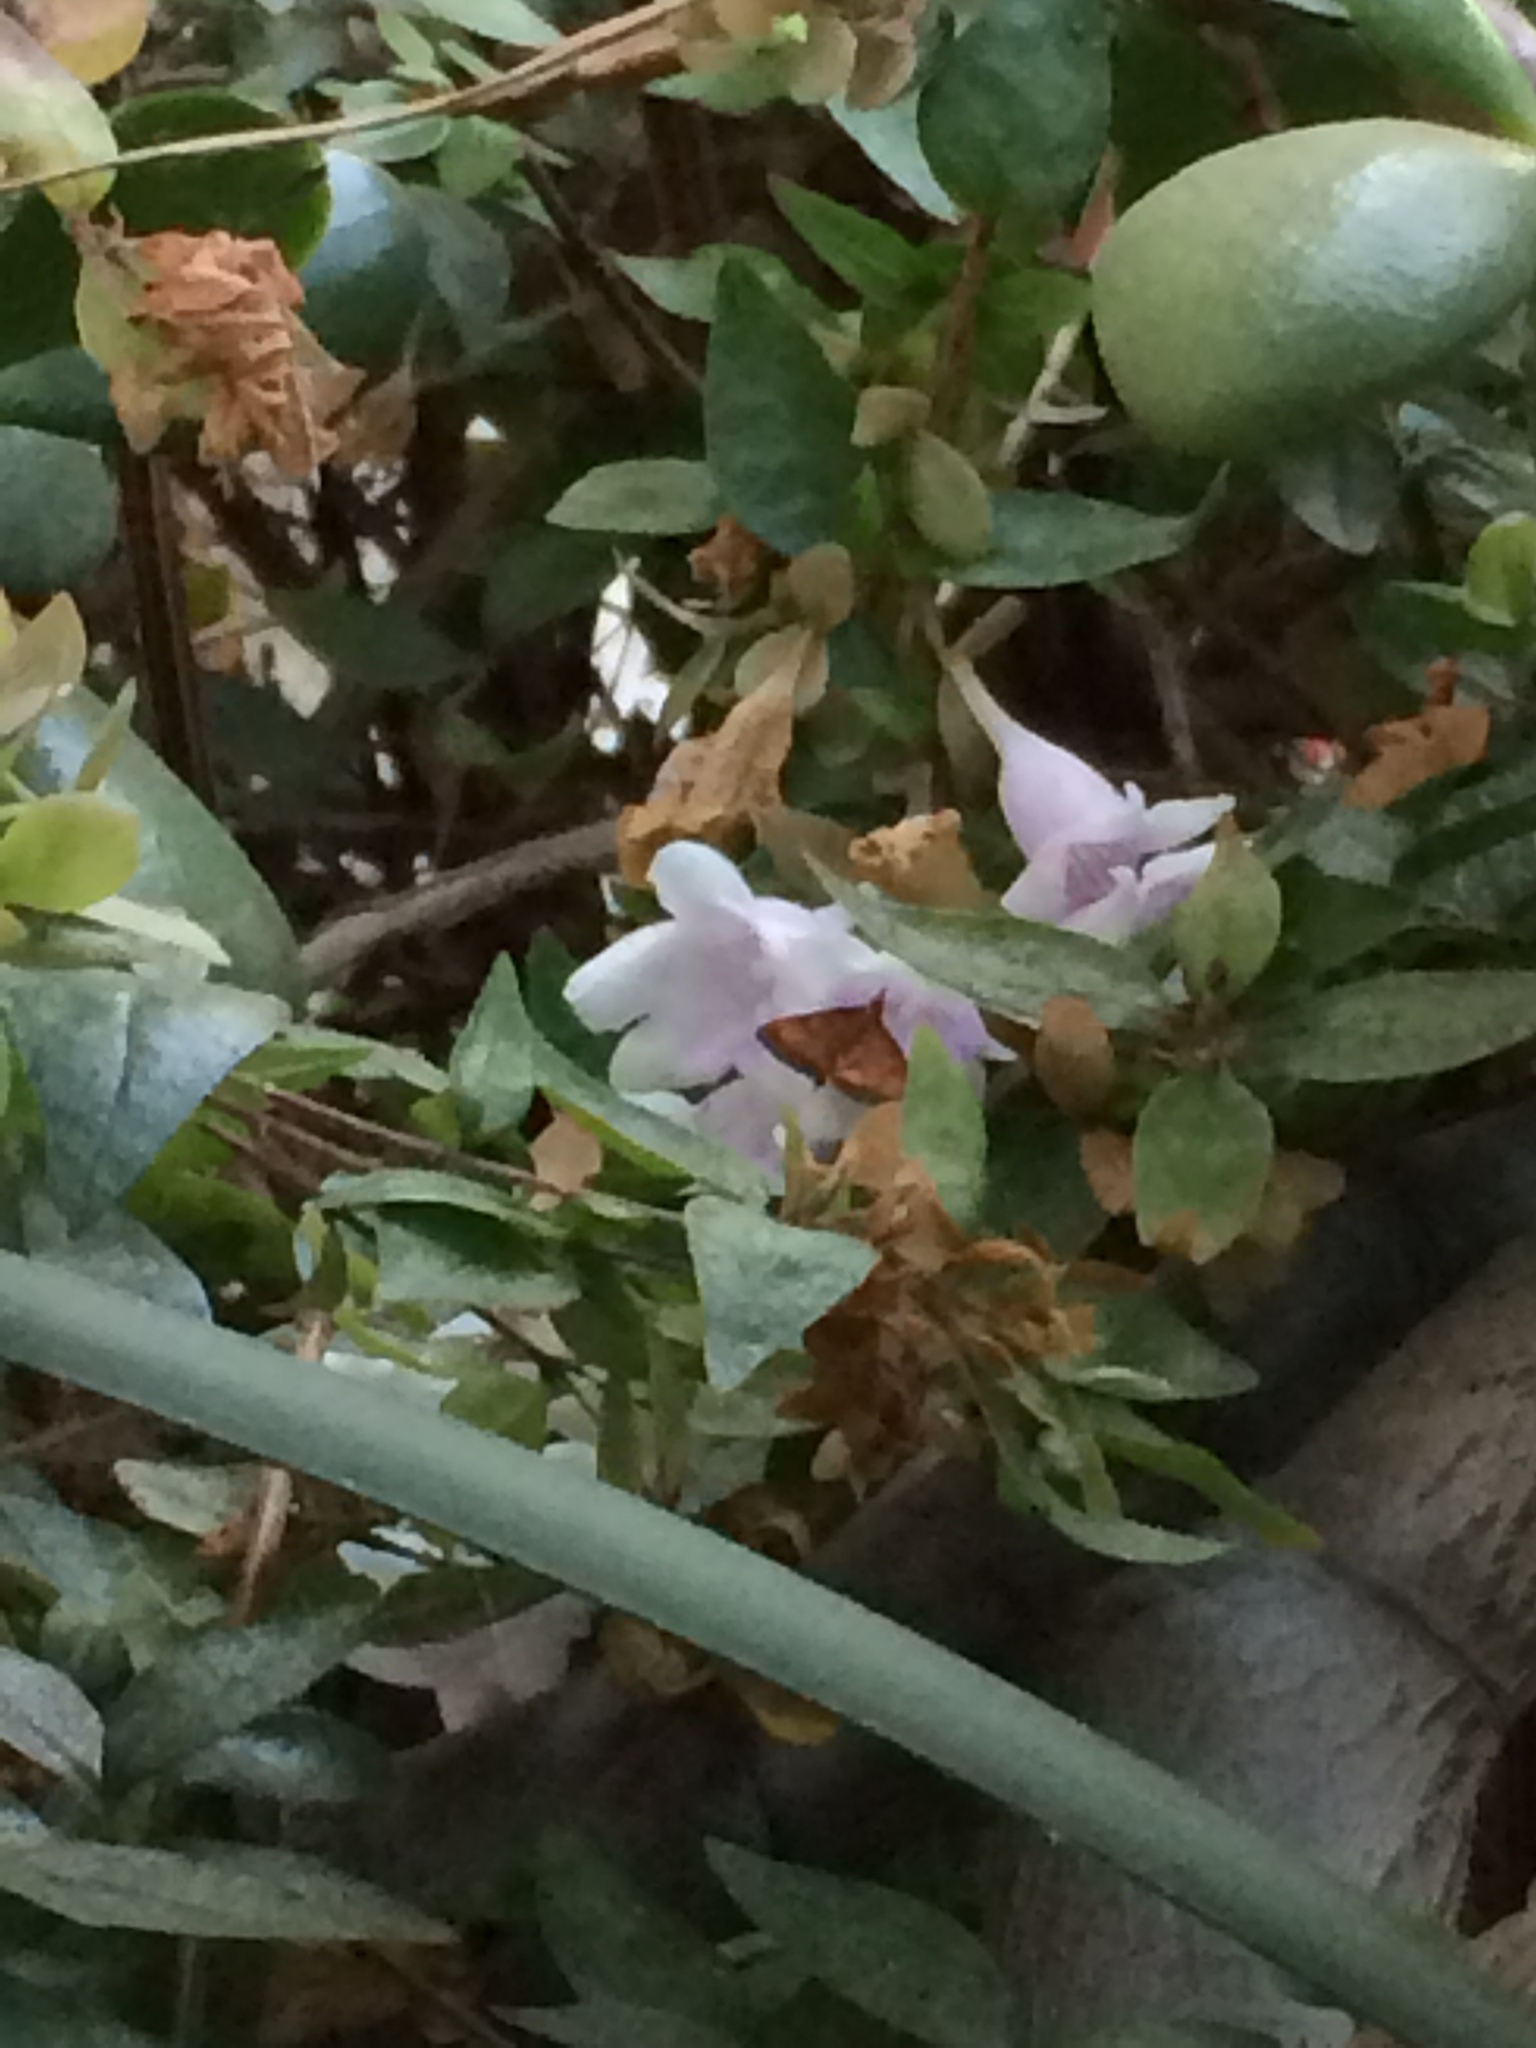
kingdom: Animalia
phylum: Arthropoda
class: Insecta
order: Lepidoptera
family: Crambidae
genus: Pyrausta
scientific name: Pyrausta
